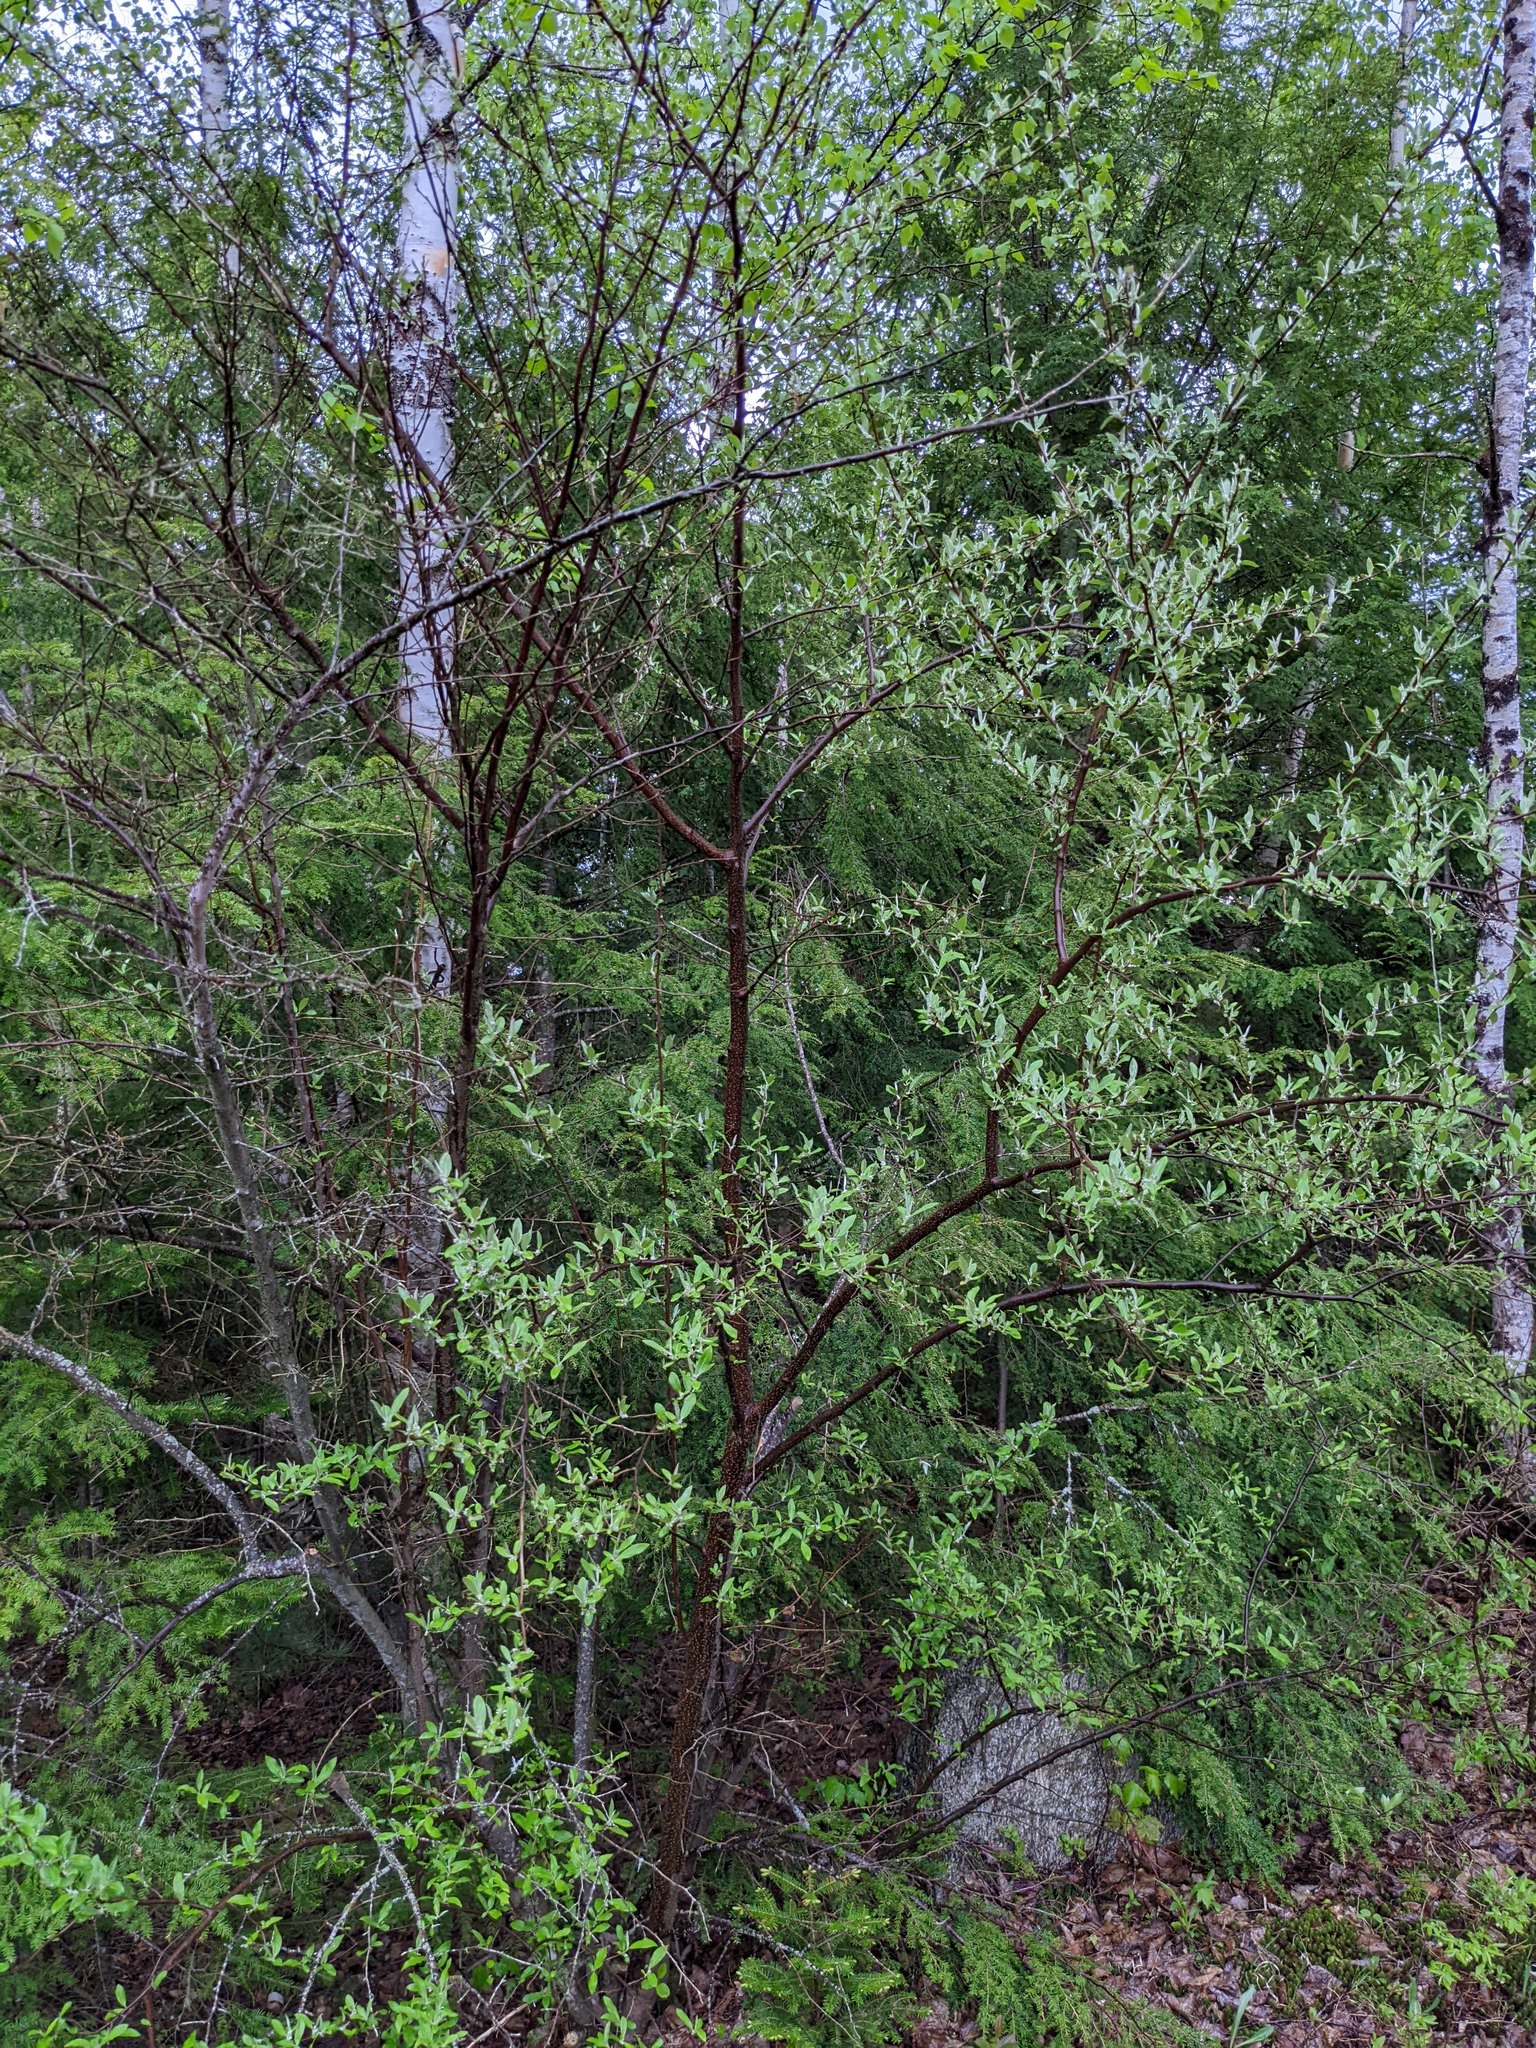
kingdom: Plantae
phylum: Tracheophyta
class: Magnoliopsida
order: Rosales
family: Elaeagnaceae
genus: Elaeagnus
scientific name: Elaeagnus umbellata
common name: Autumn olive
